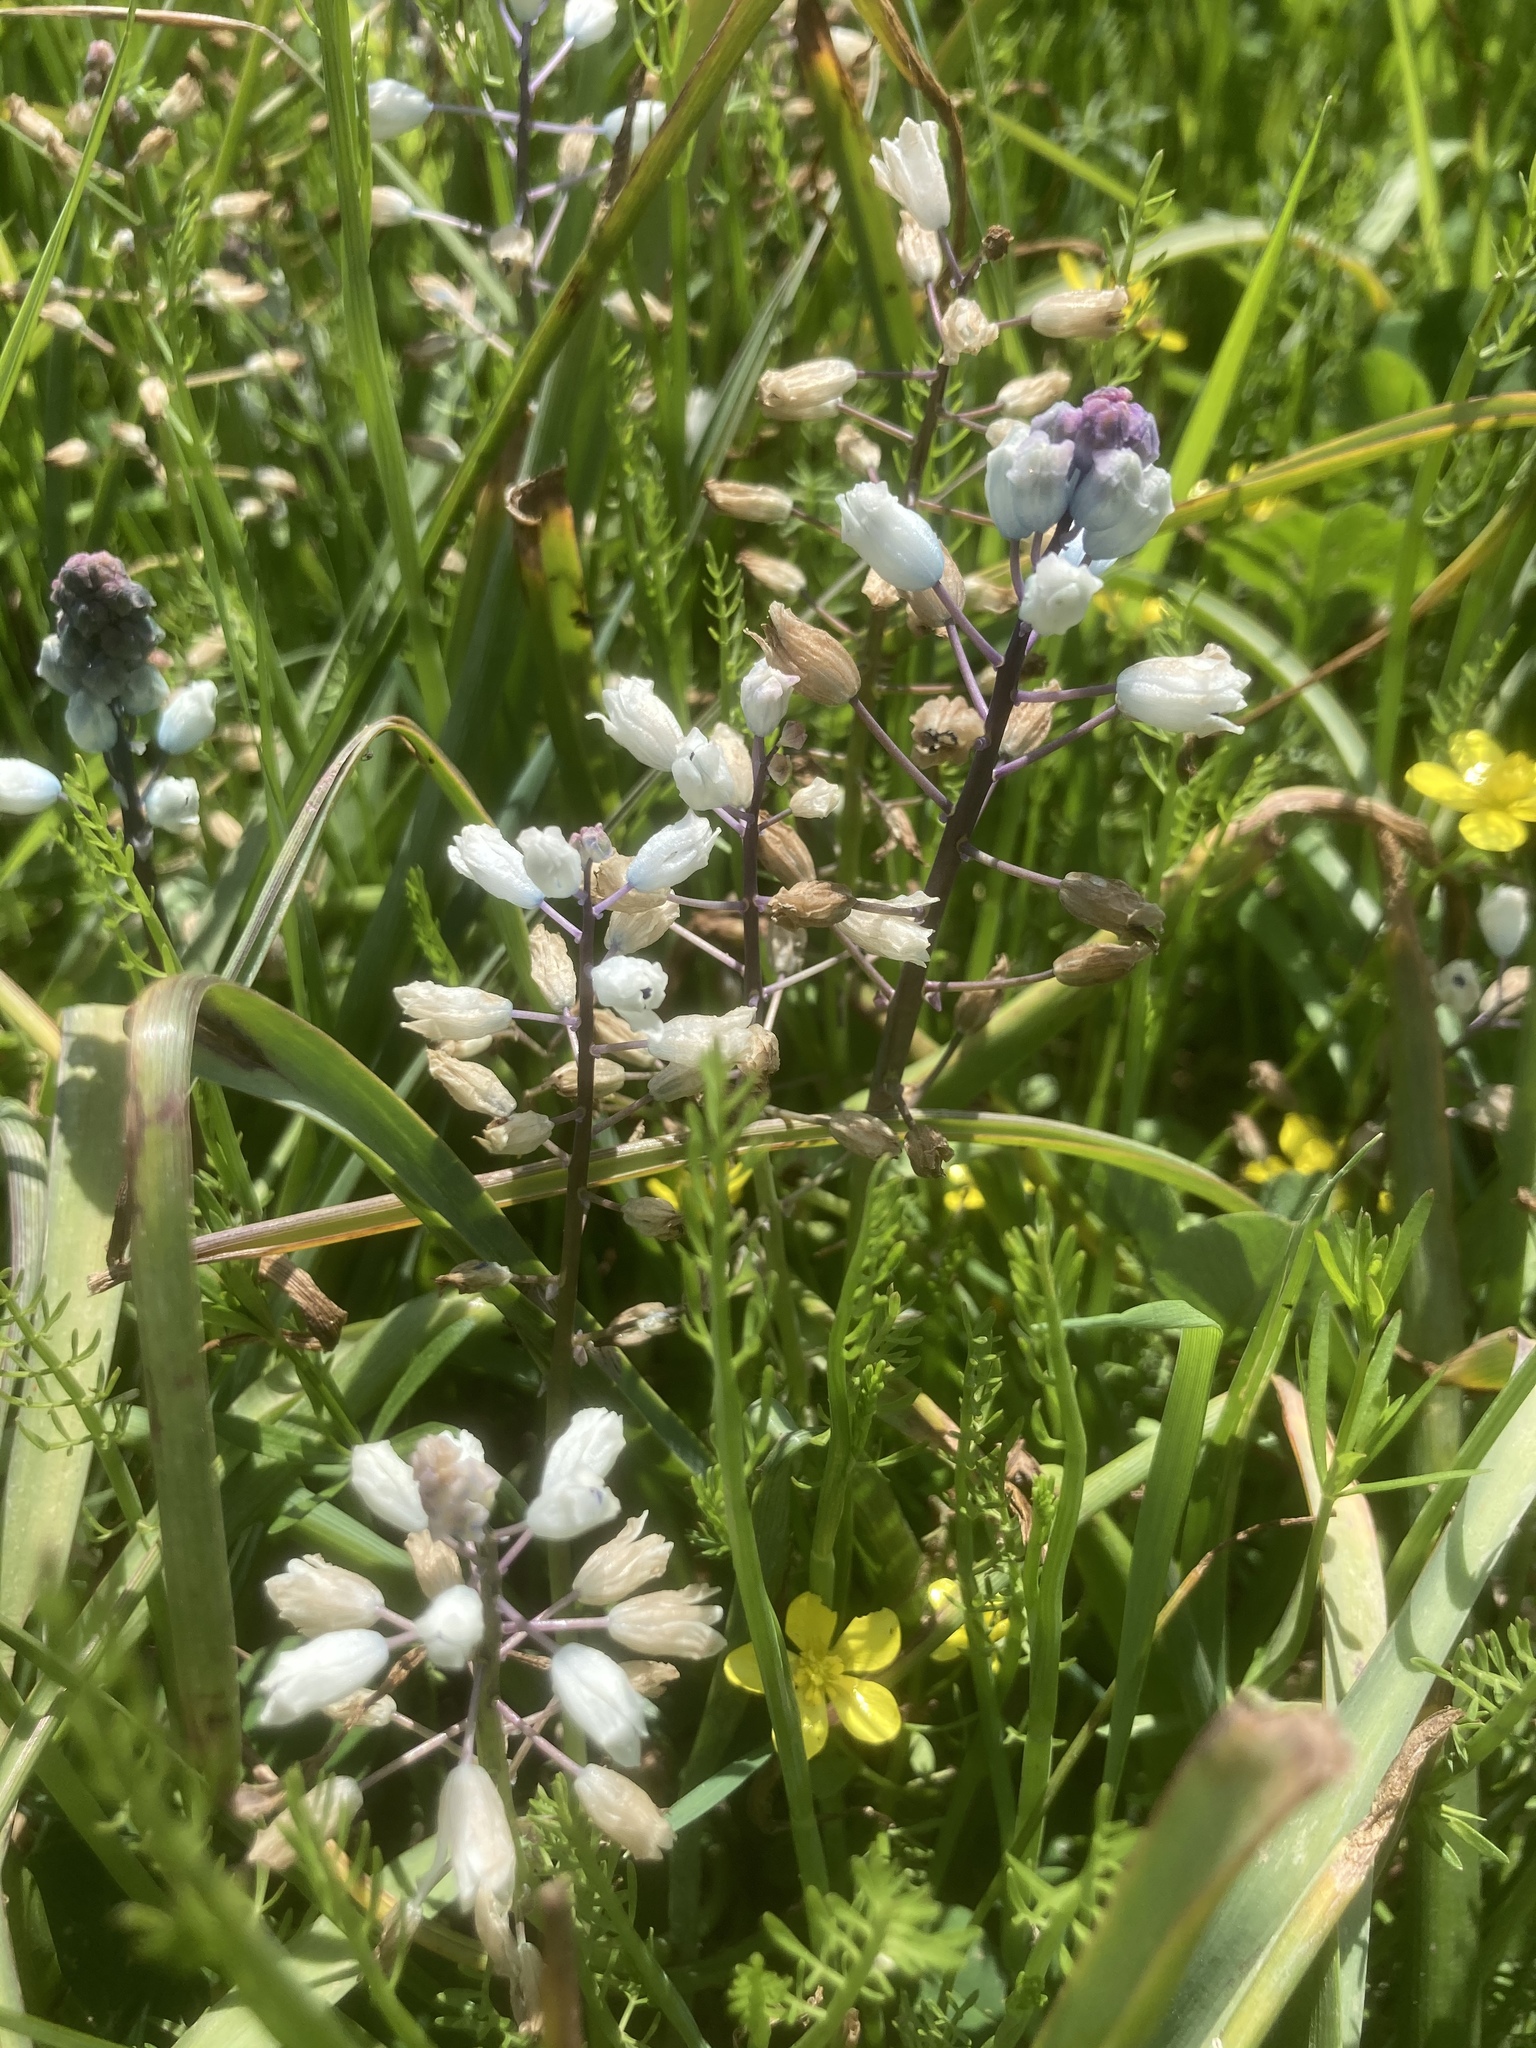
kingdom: Plantae
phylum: Tracheophyta
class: Liliopsida
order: Asparagales
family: Asparagaceae
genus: Bellevalia
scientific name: Bellevalia romana
